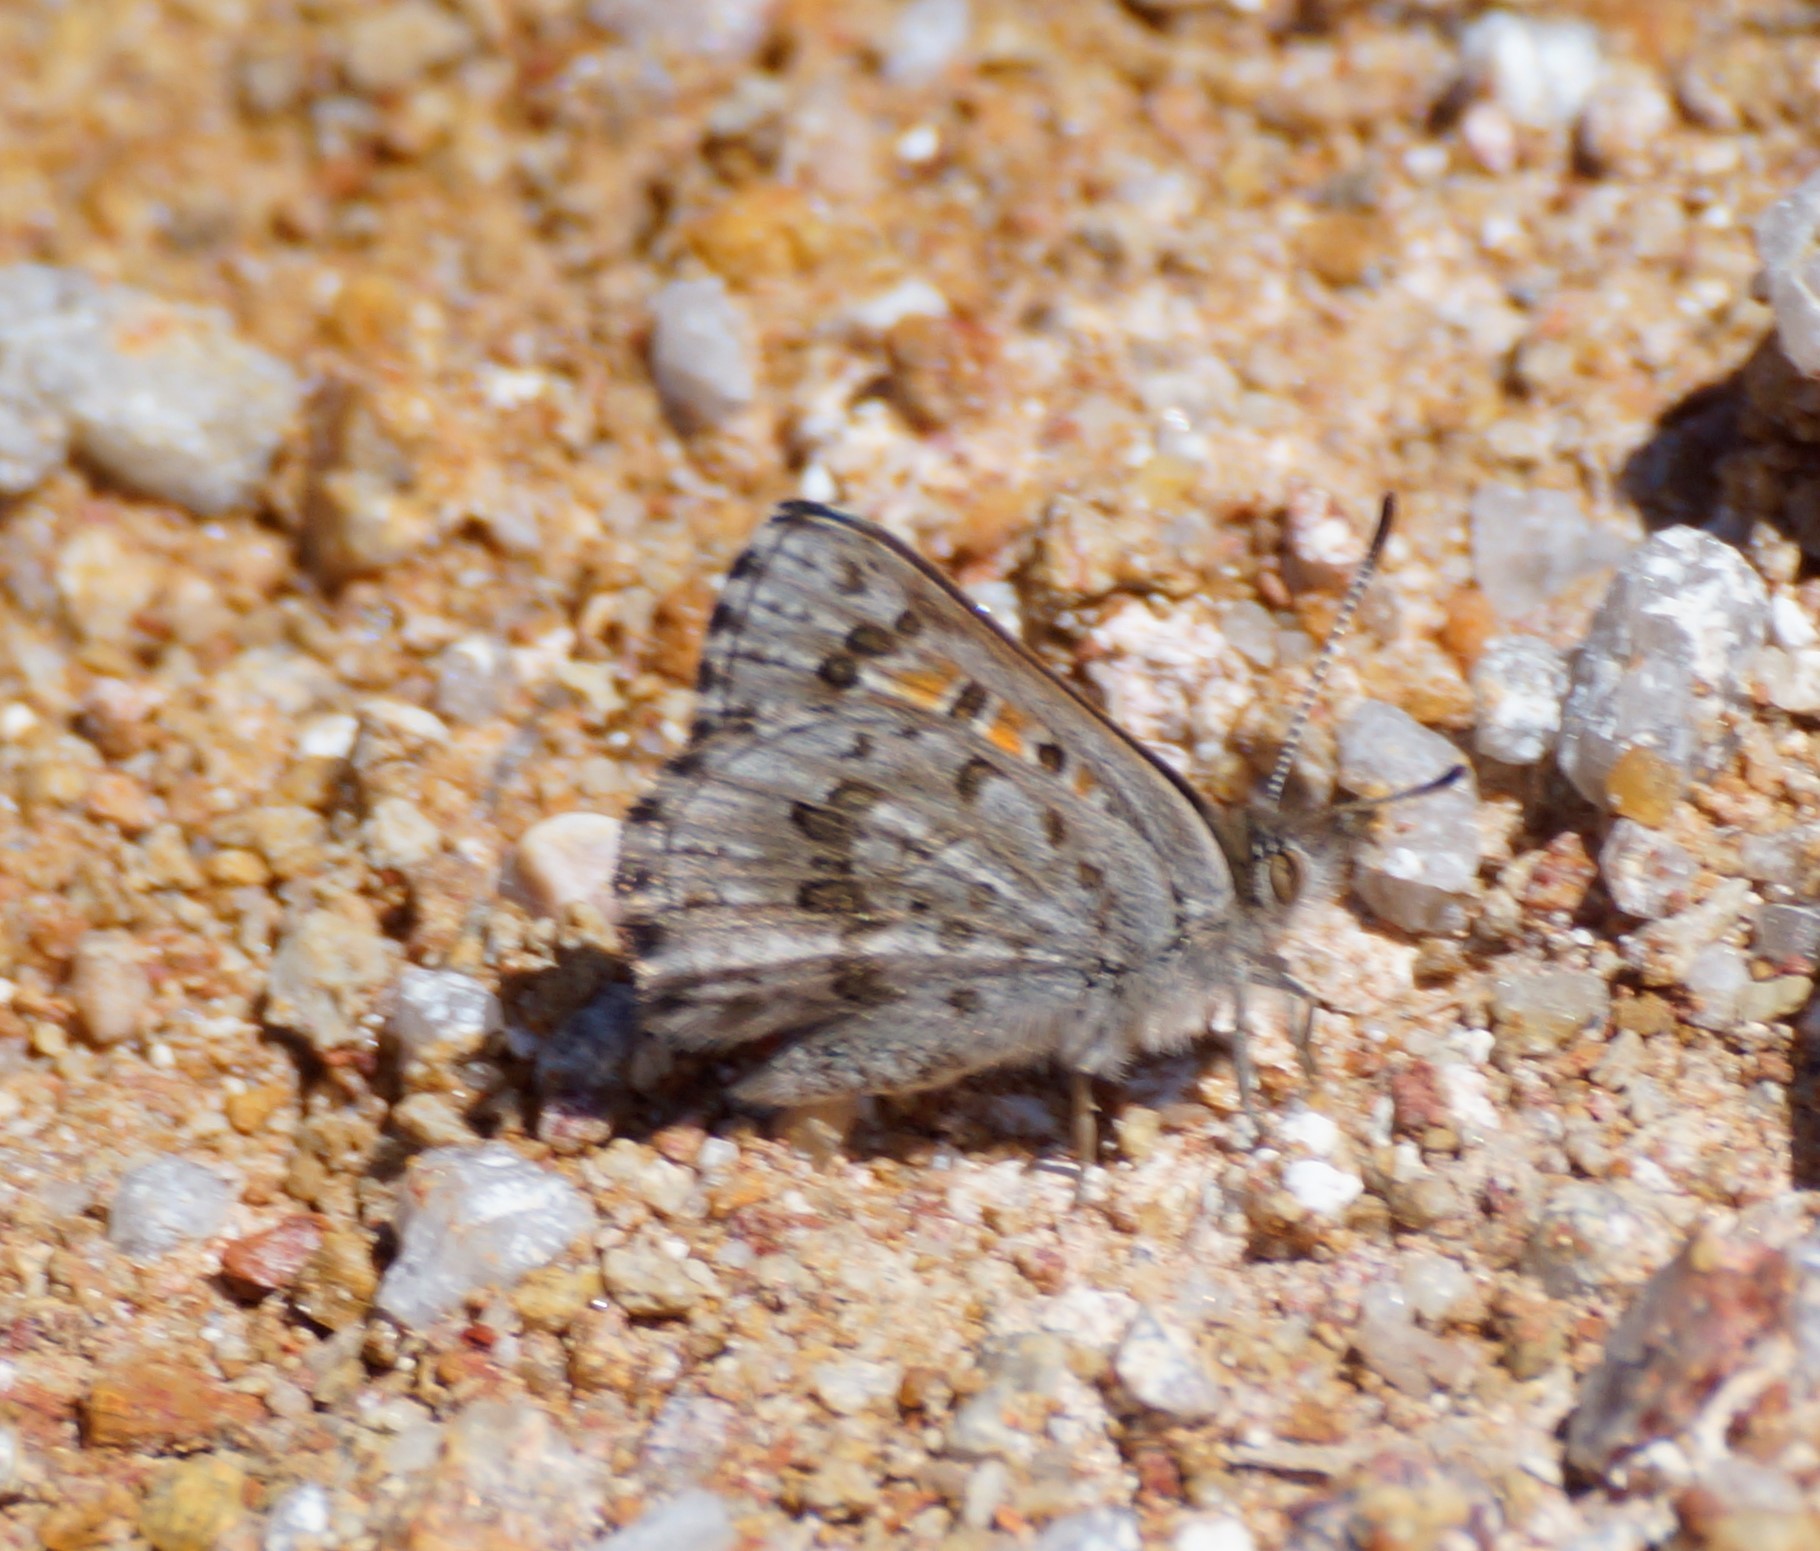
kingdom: Animalia
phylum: Arthropoda
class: Insecta
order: Lepidoptera
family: Lycaenidae
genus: Lucia
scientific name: Lucia limbaria
